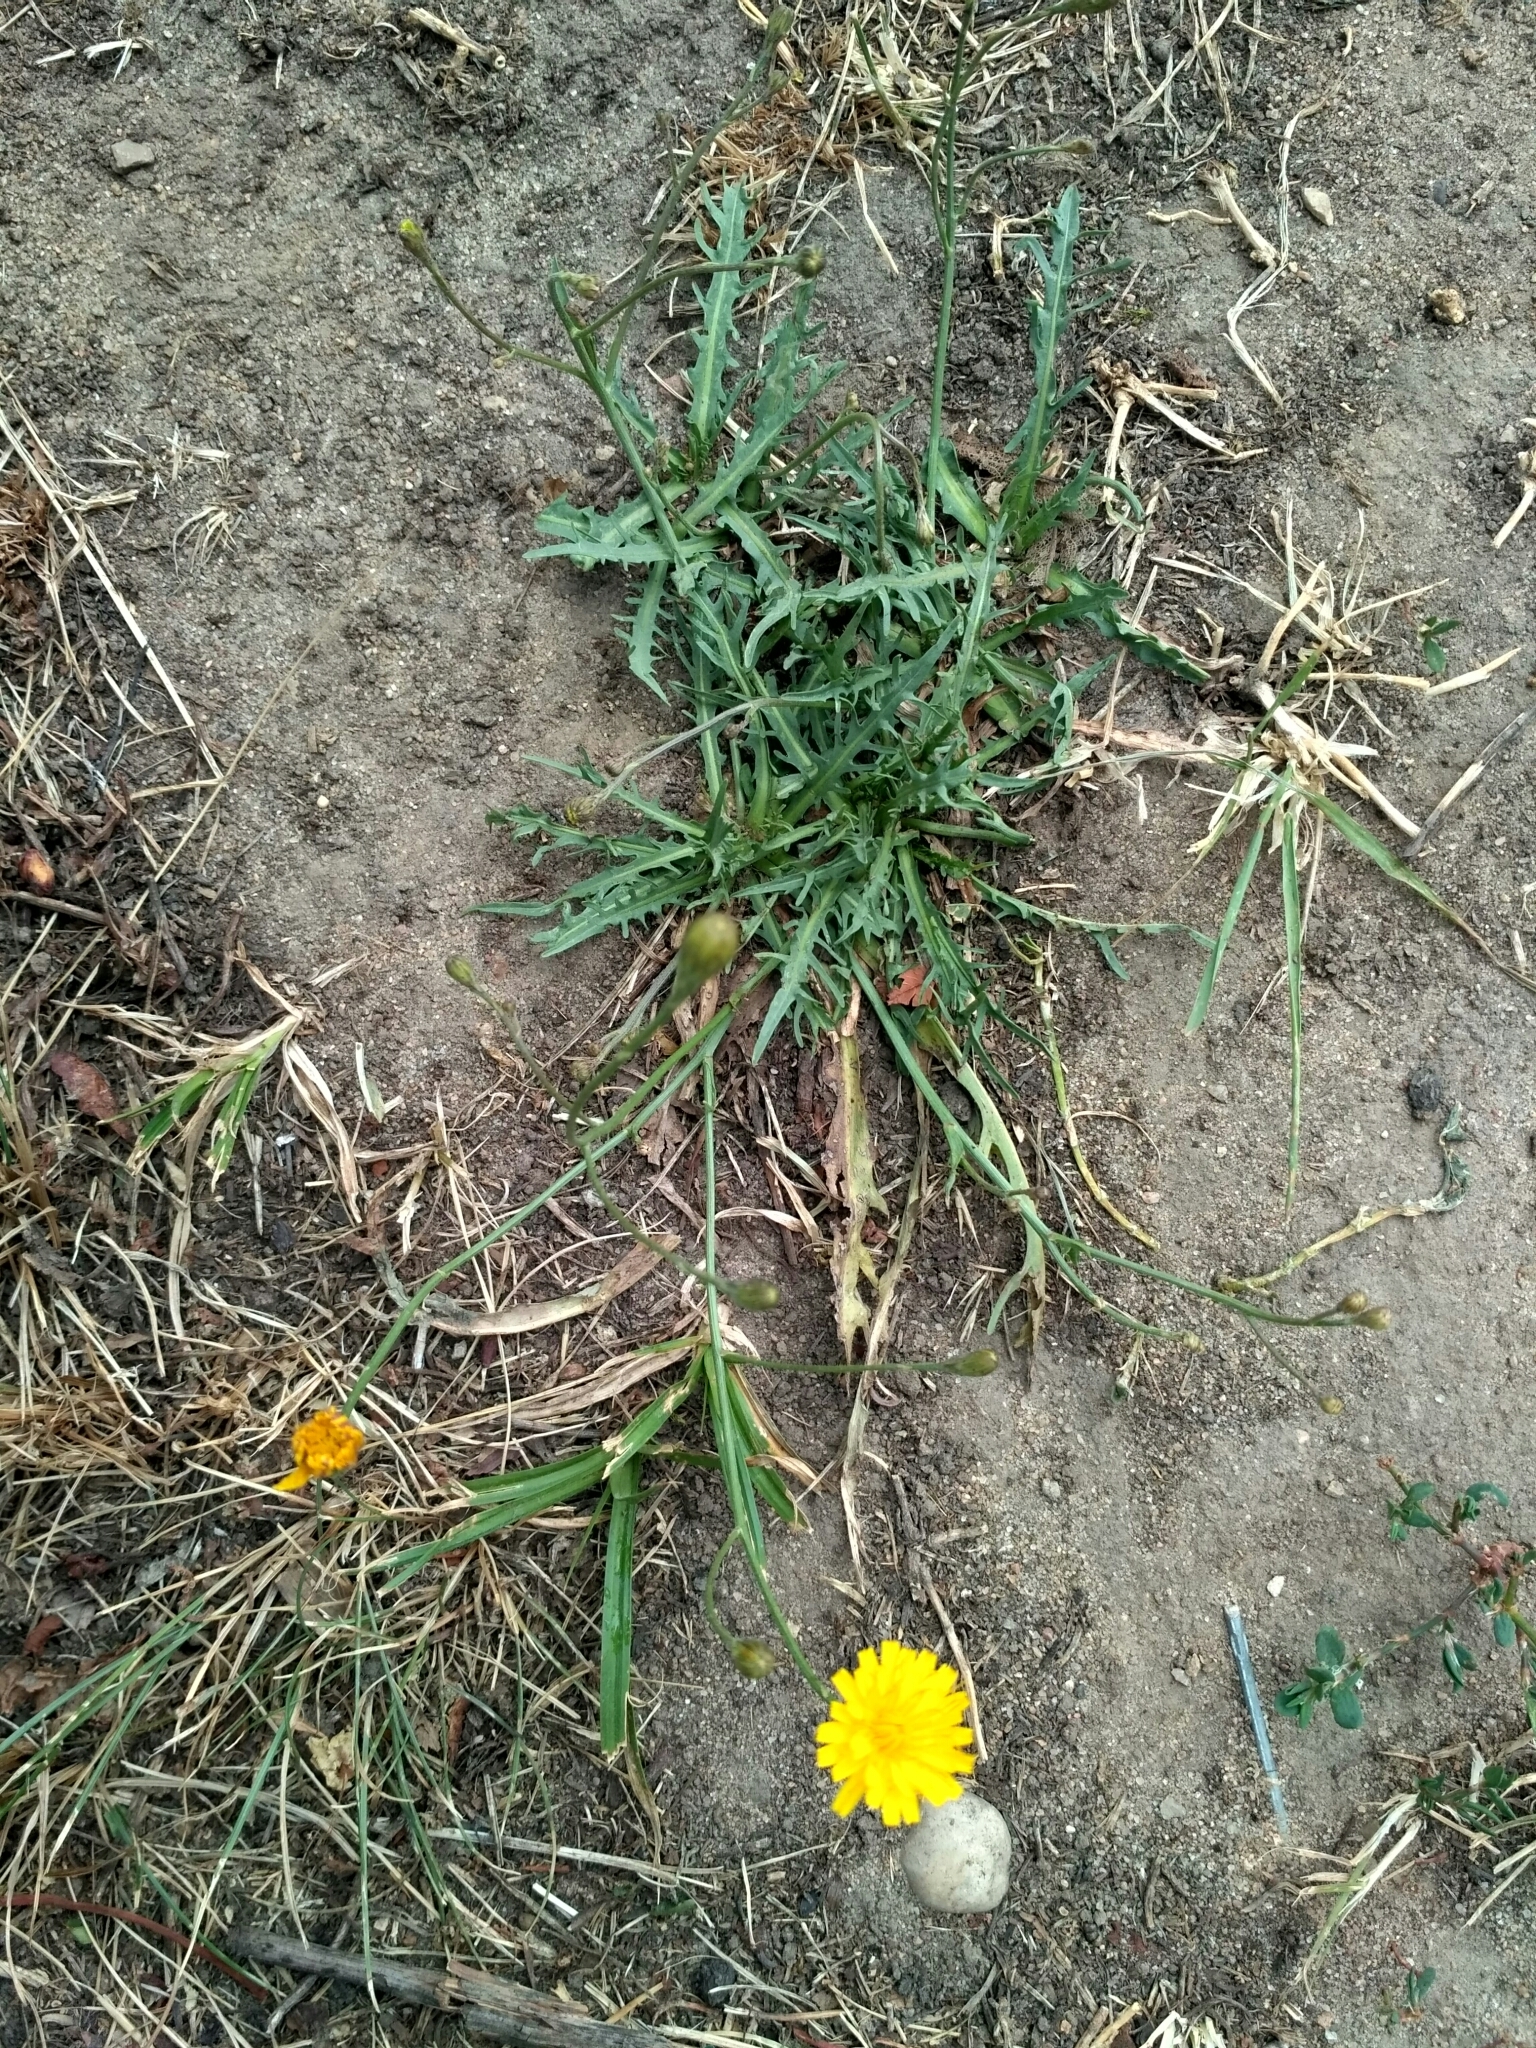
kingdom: Plantae
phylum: Tracheophyta
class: Magnoliopsida
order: Asterales
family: Asteraceae
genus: Scorzoneroides
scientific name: Scorzoneroides autumnalis
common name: Autumn hawkbit
